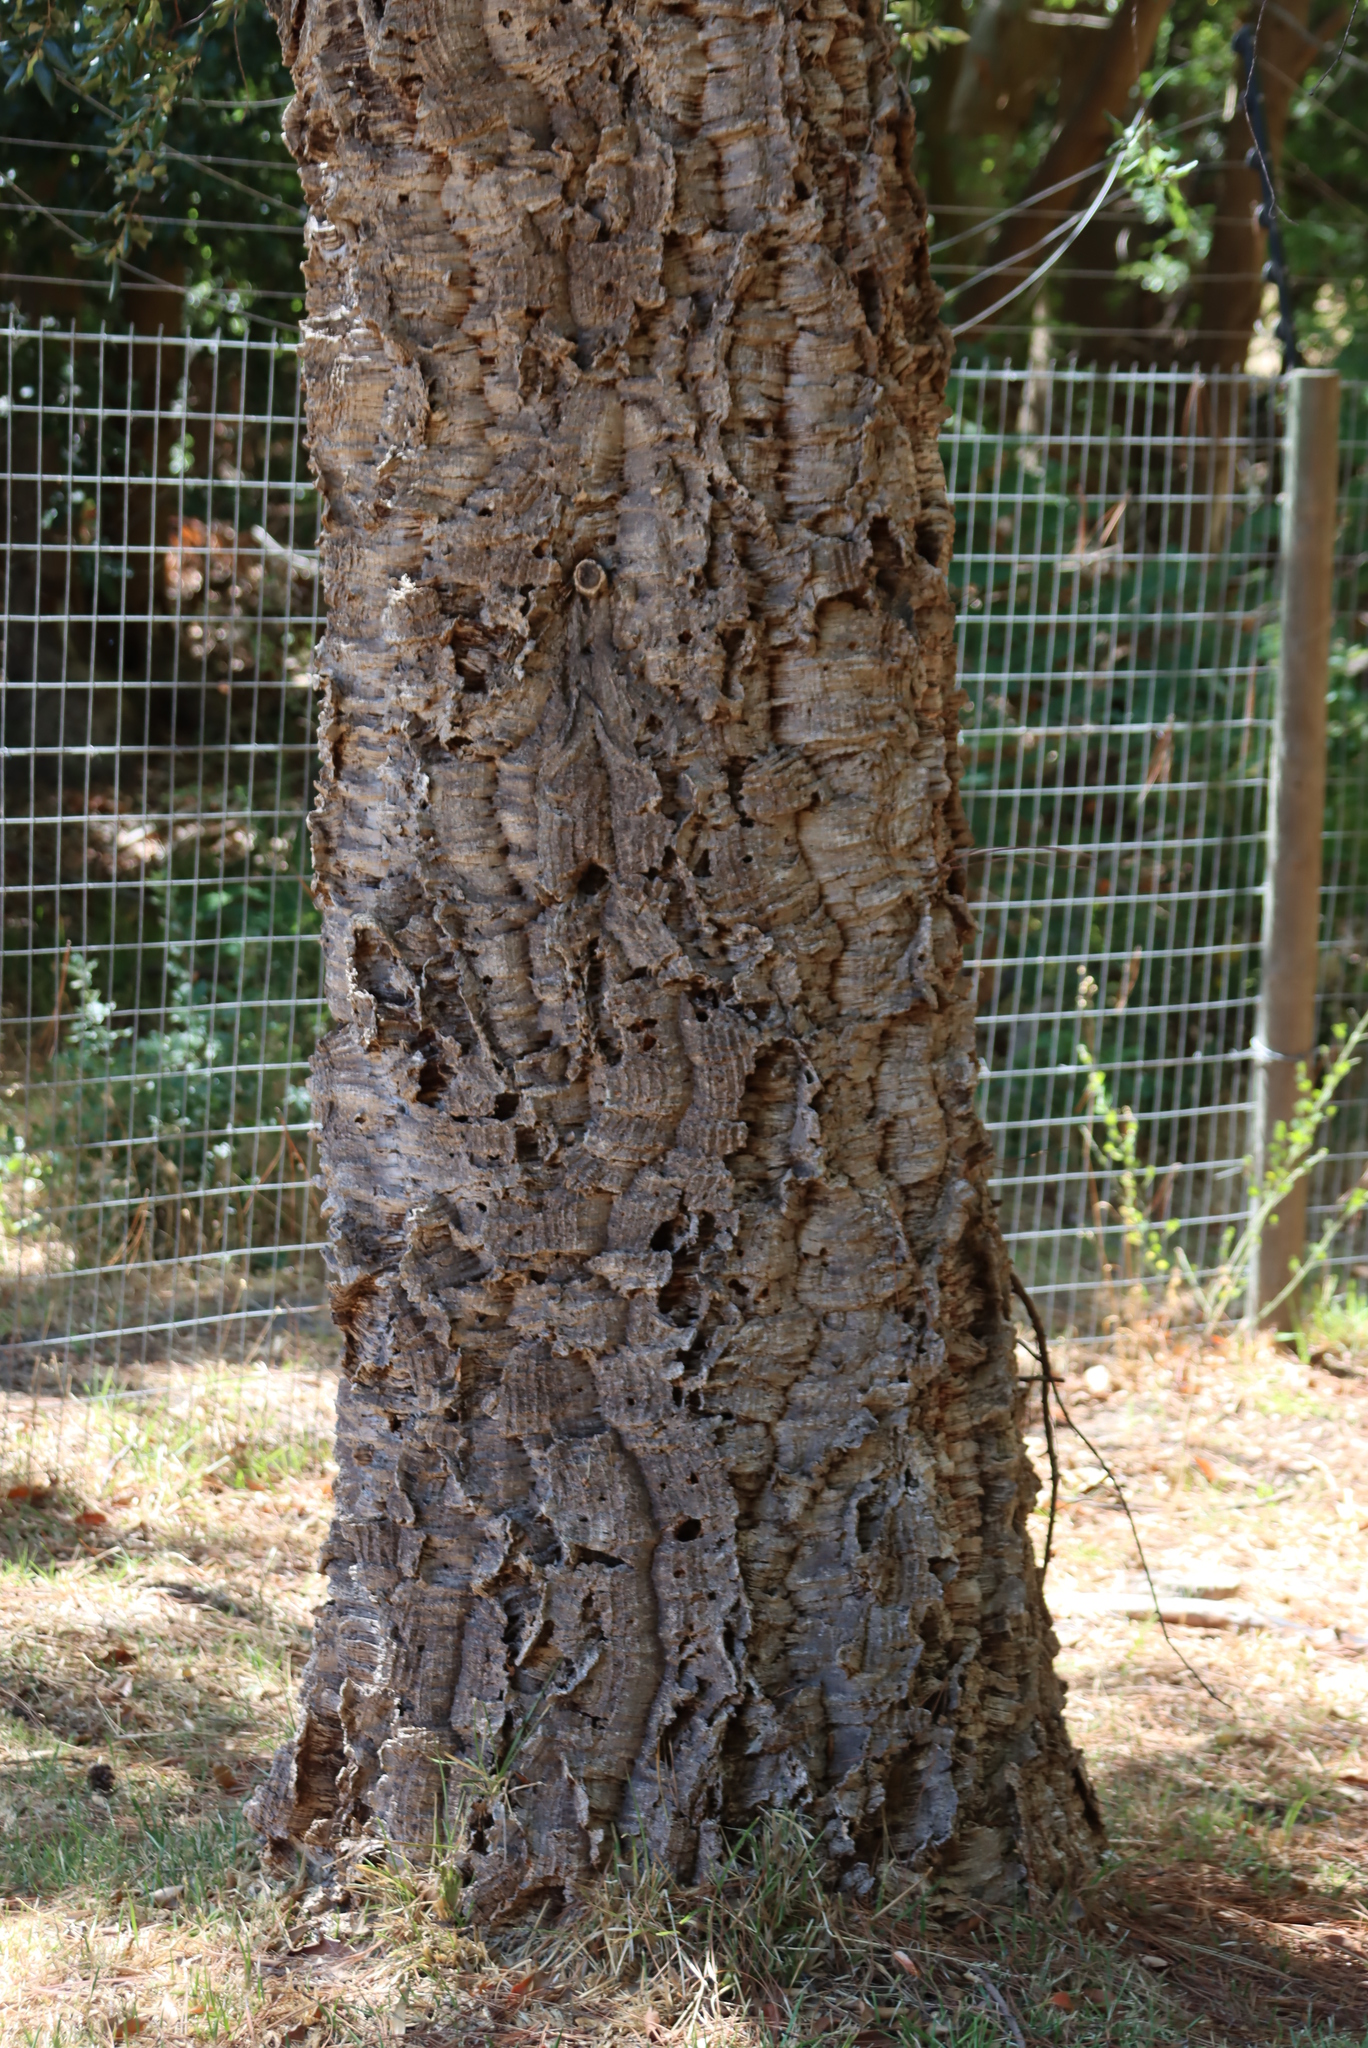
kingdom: Plantae
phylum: Tracheophyta
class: Magnoliopsida
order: Fagales
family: Fagaceae
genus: Quercus
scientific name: Quercus suber
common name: Cork oak
